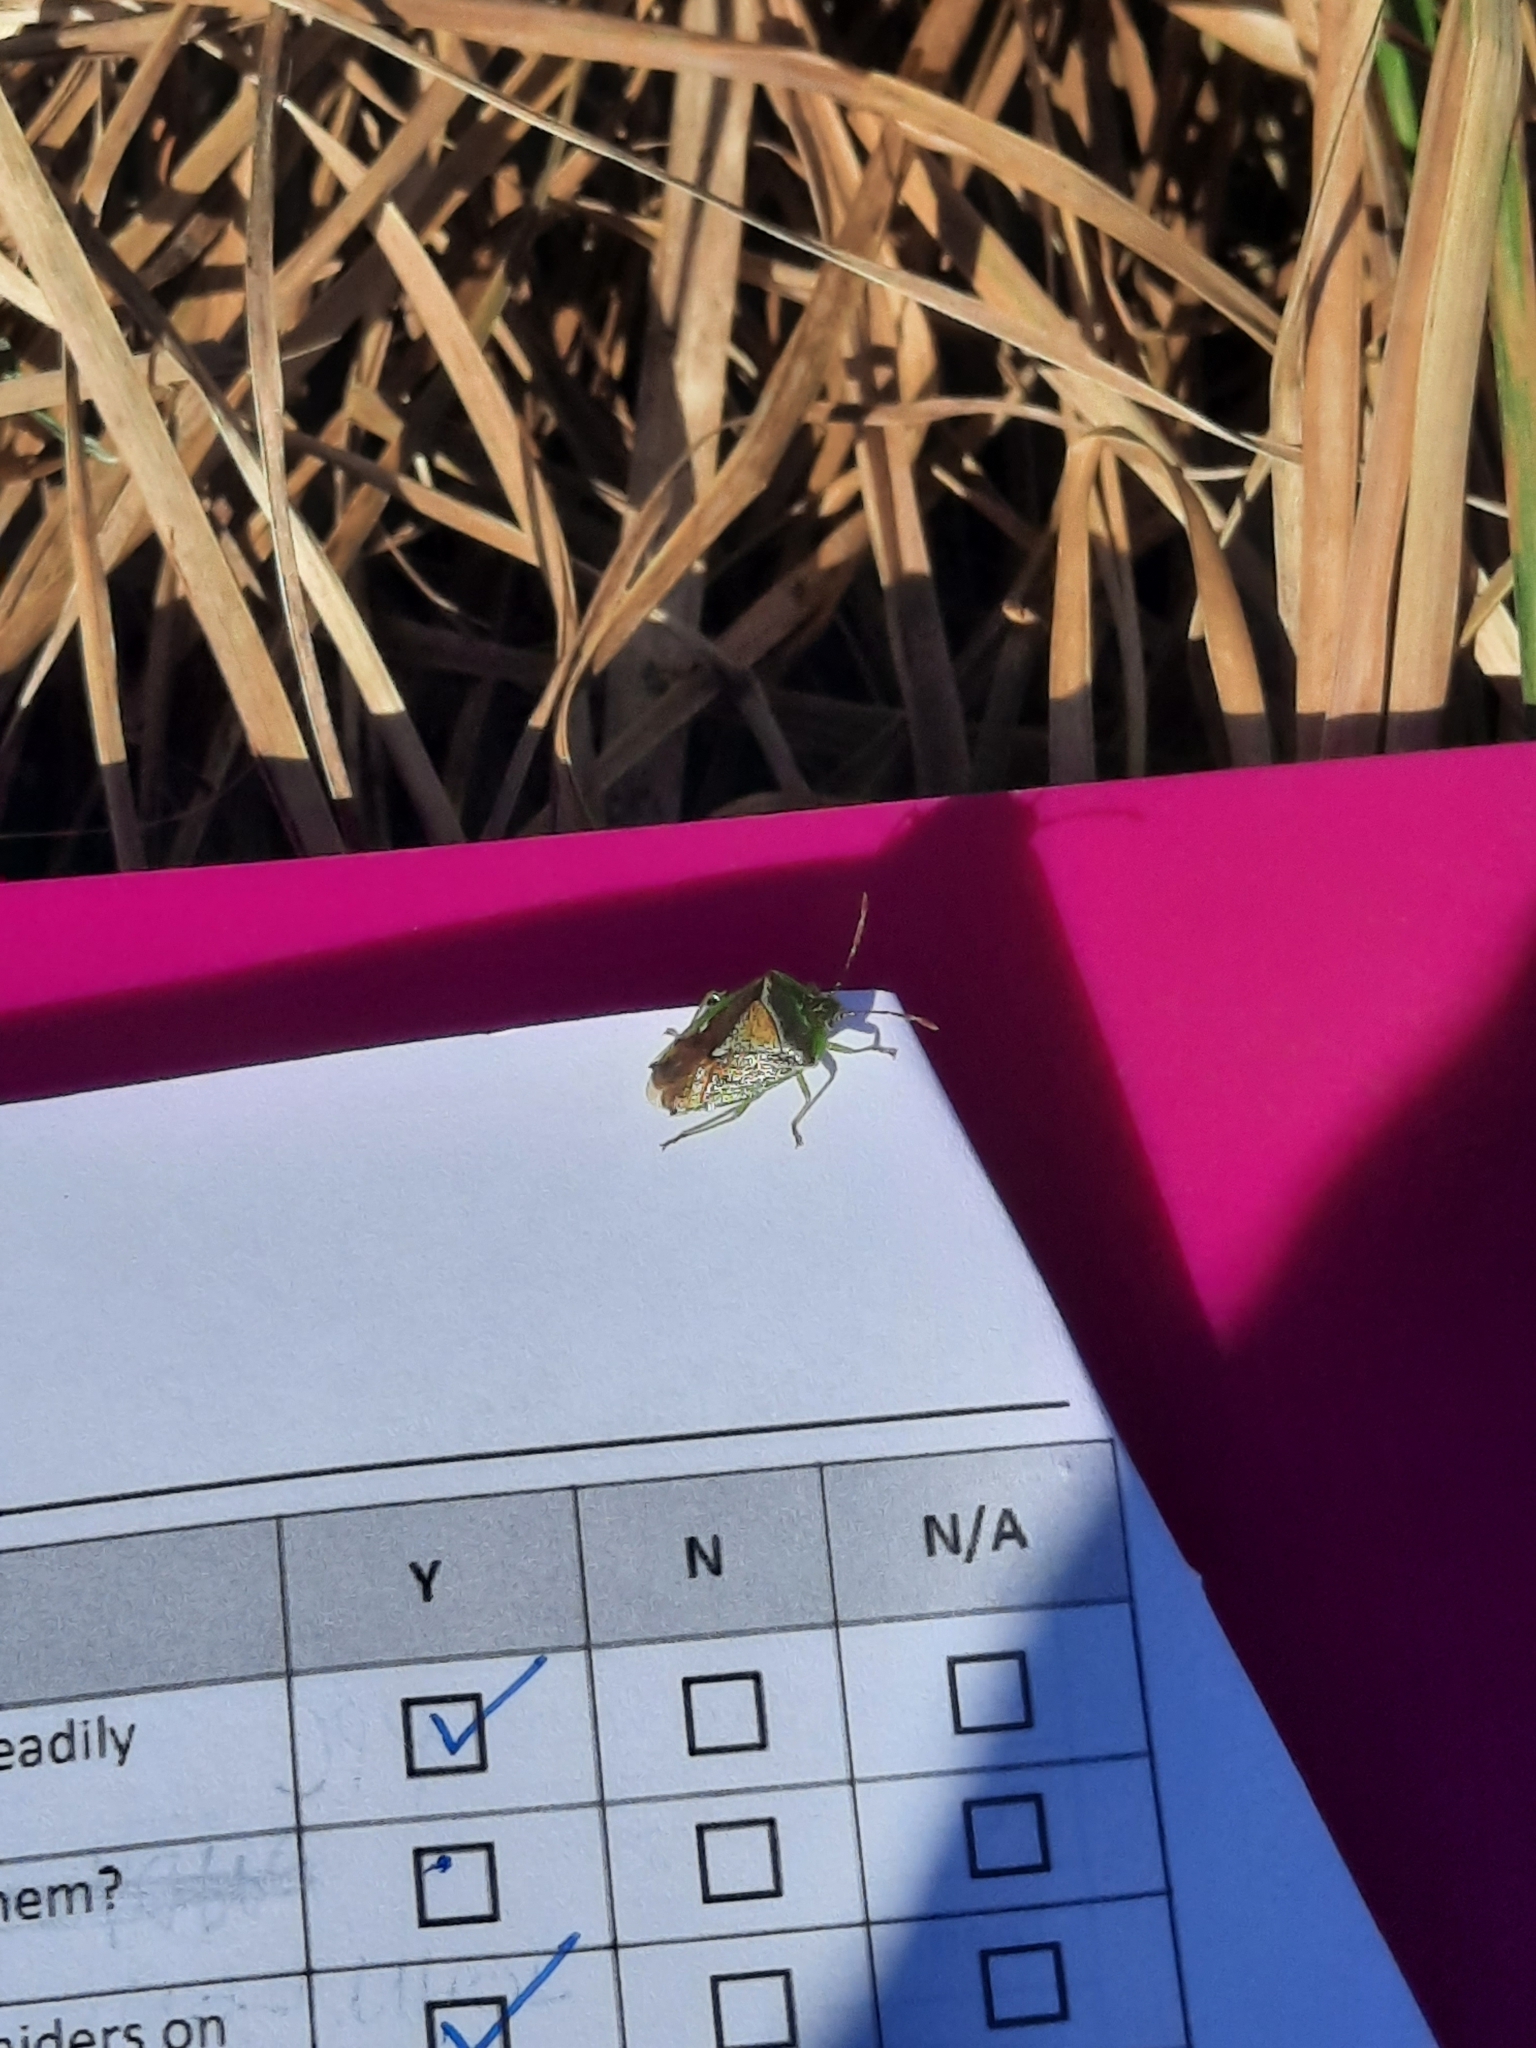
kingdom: Animalia
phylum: Arthropoda
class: Insecta
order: Hemiptera
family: Acanthosomatidae
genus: Oncacontias
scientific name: Oncacontias vittatus
